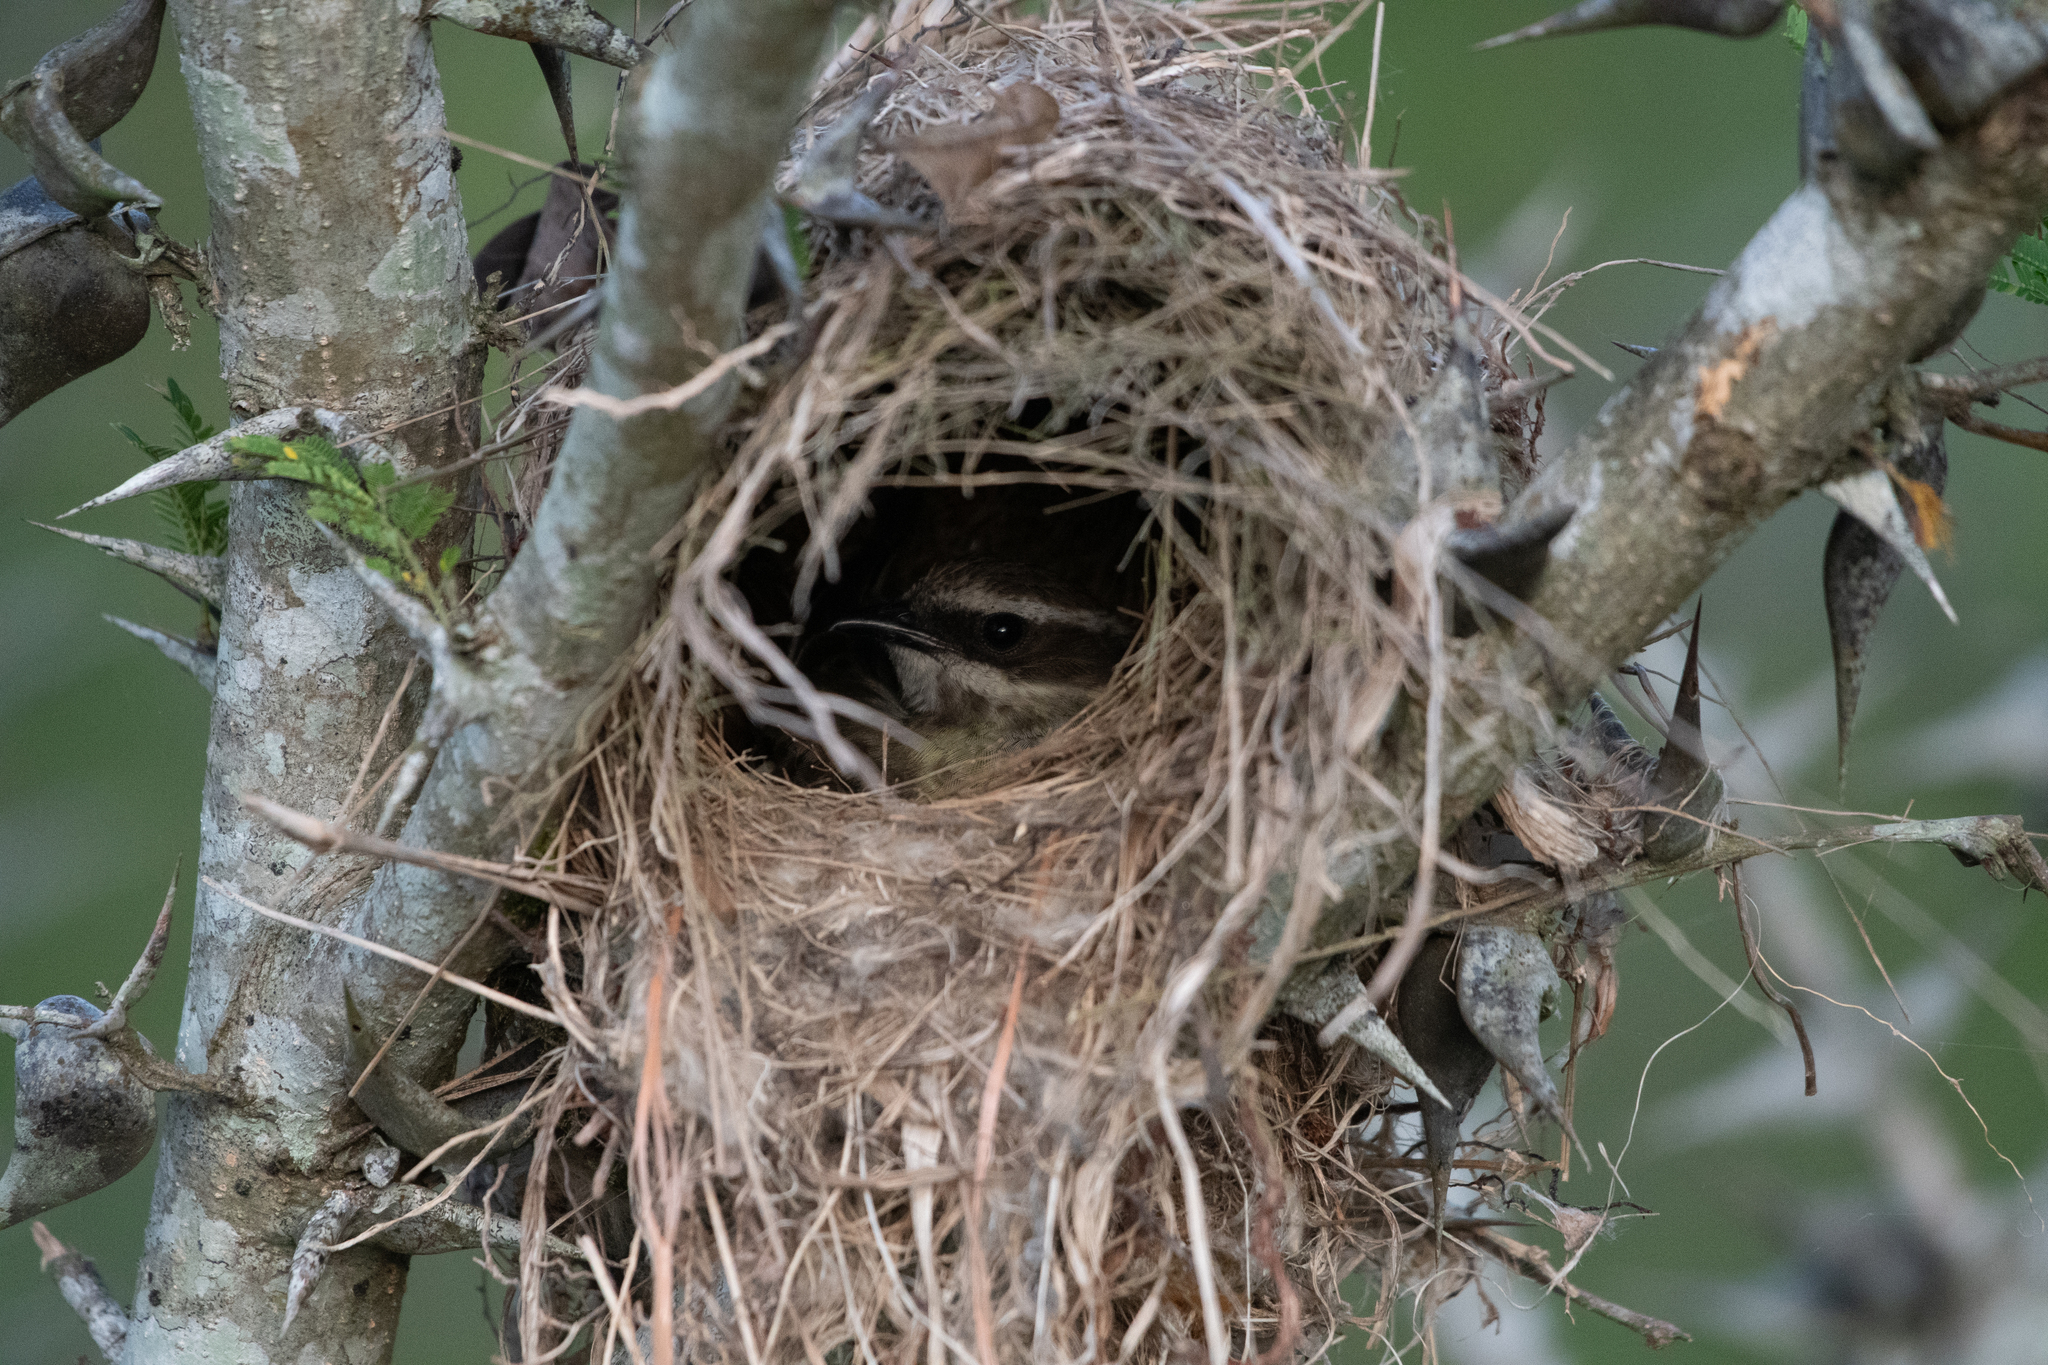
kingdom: Animalia
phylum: Chordata
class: Aves
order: Passeriformes
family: Tyrannidae
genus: Legatus
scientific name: Legatus leucophaius
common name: Piratic flycatcher
